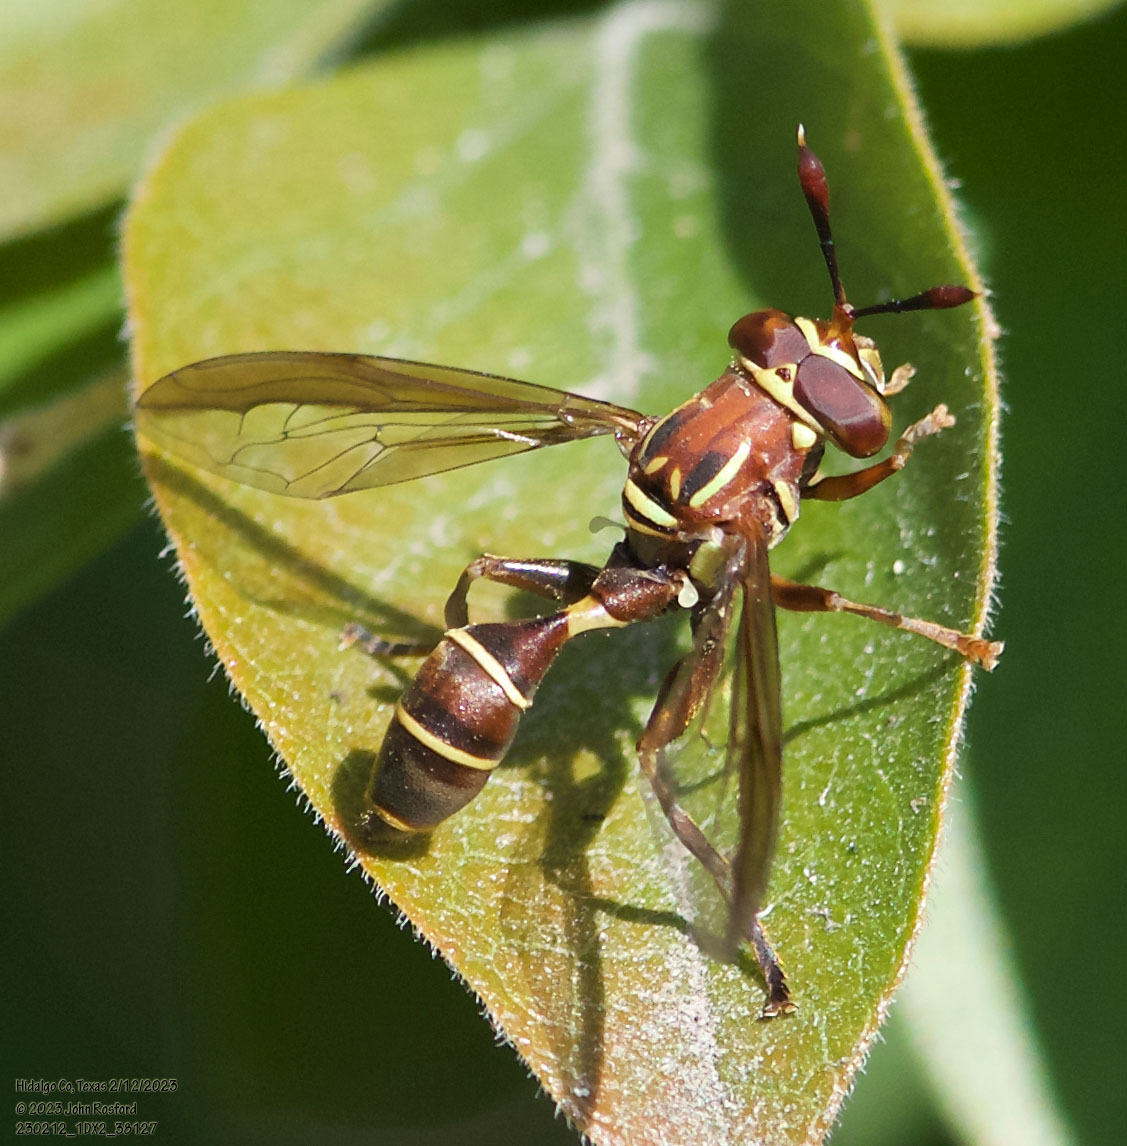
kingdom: Animalia
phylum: Arthropoda
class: Insecta
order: Diptera
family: Syrphidae
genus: Polybiomyia
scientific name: Polybiomyia schnablei
